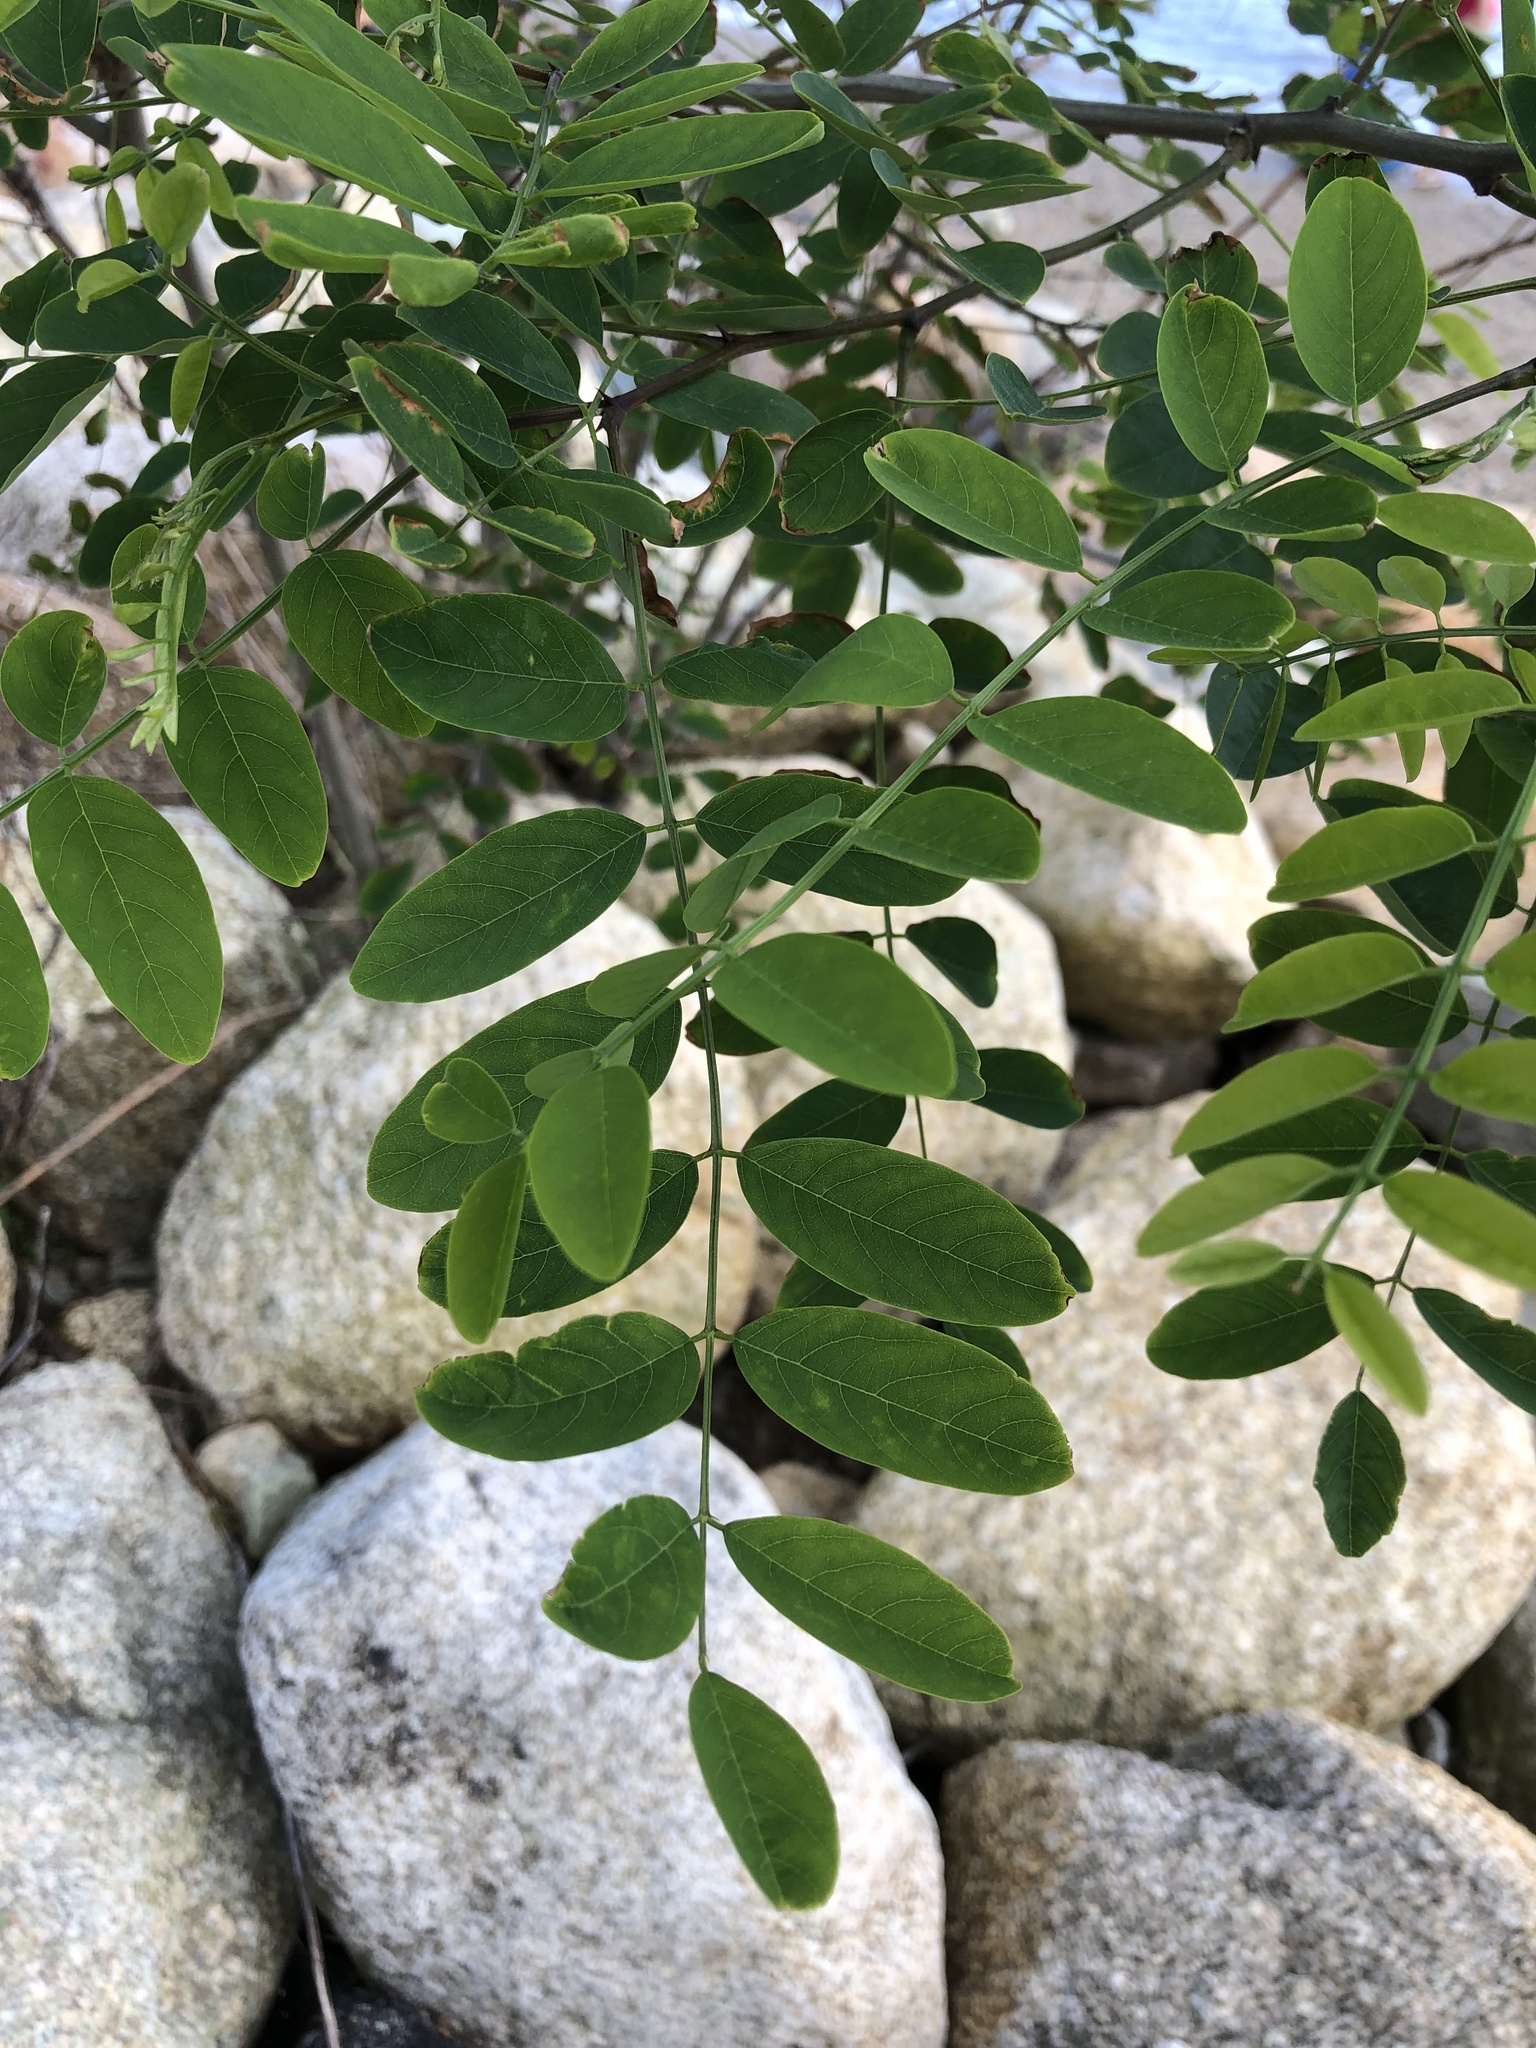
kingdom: Plantae
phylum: Tracheophyta
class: Magnoliopsida
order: Fabales
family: Fabaceae
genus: Robinia
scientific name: Robinia pseudoacacia
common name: Black locust
